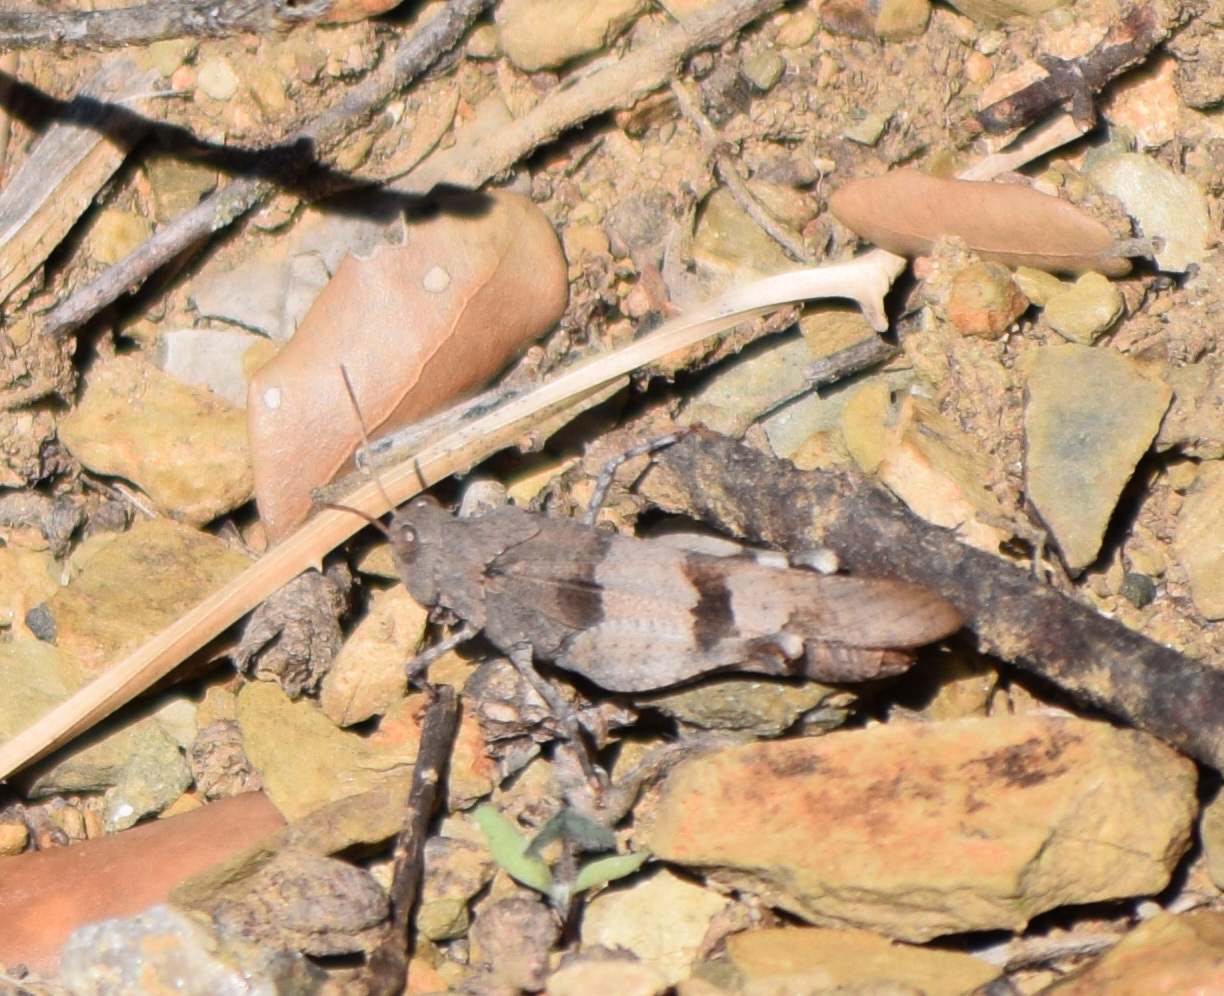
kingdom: Animalia
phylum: Arthropoda
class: Insecta
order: Orthoptera
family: Acrididae
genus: Oedipoda
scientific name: Oedipoda caerulescens
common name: Blue-winged grasshopper
